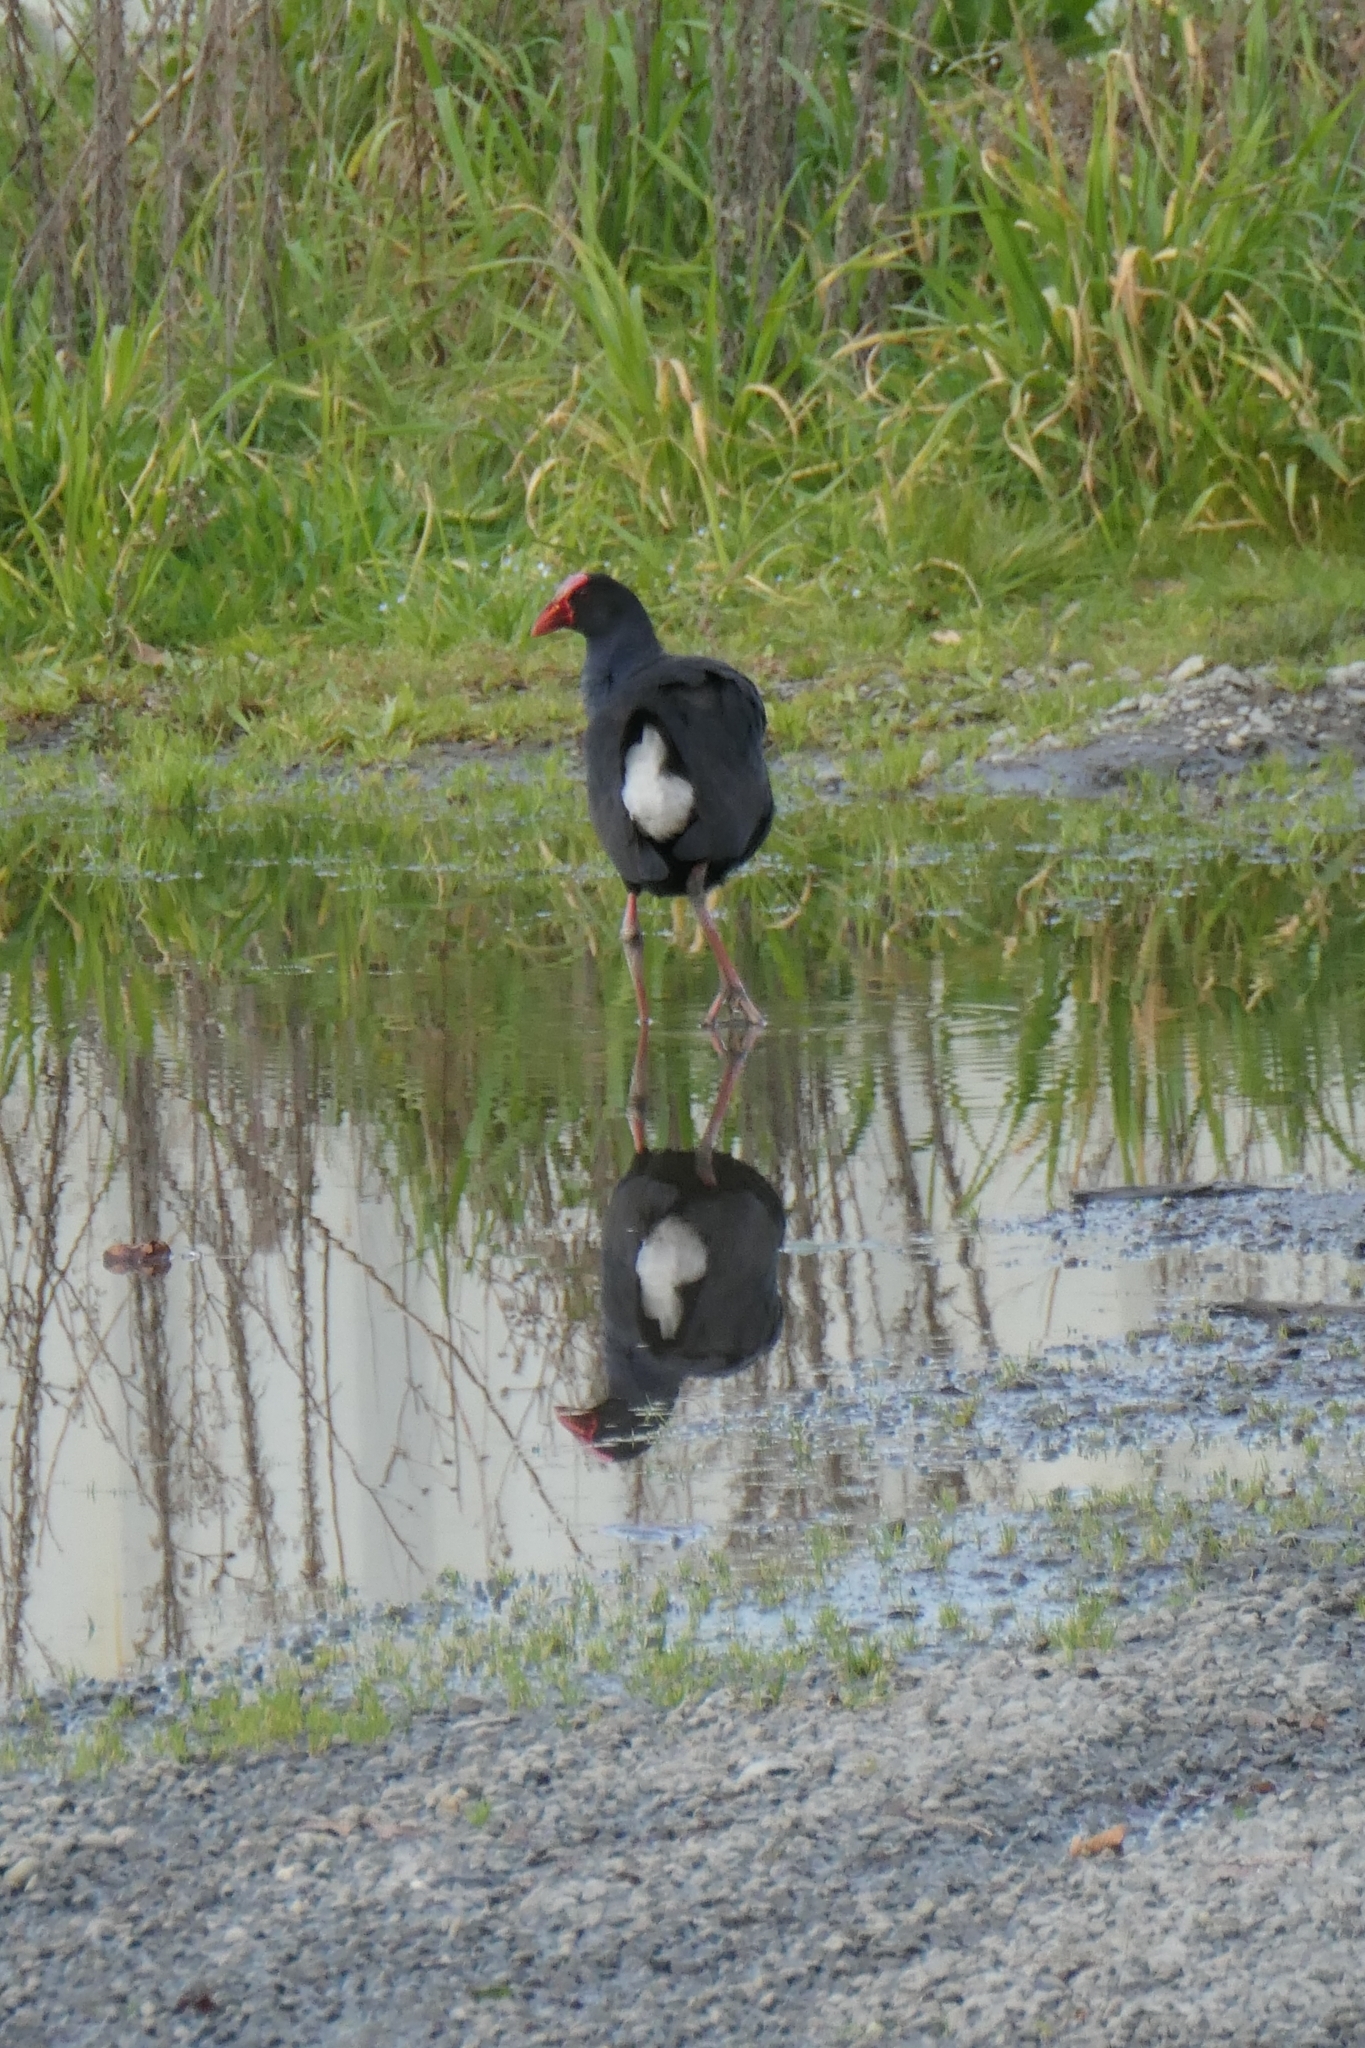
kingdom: Animalia
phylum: Chordata
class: Aves
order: Gruiformes
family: Rallidae
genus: Porphyrio
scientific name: Porphyrio melanotus
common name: Australasian swamphen
